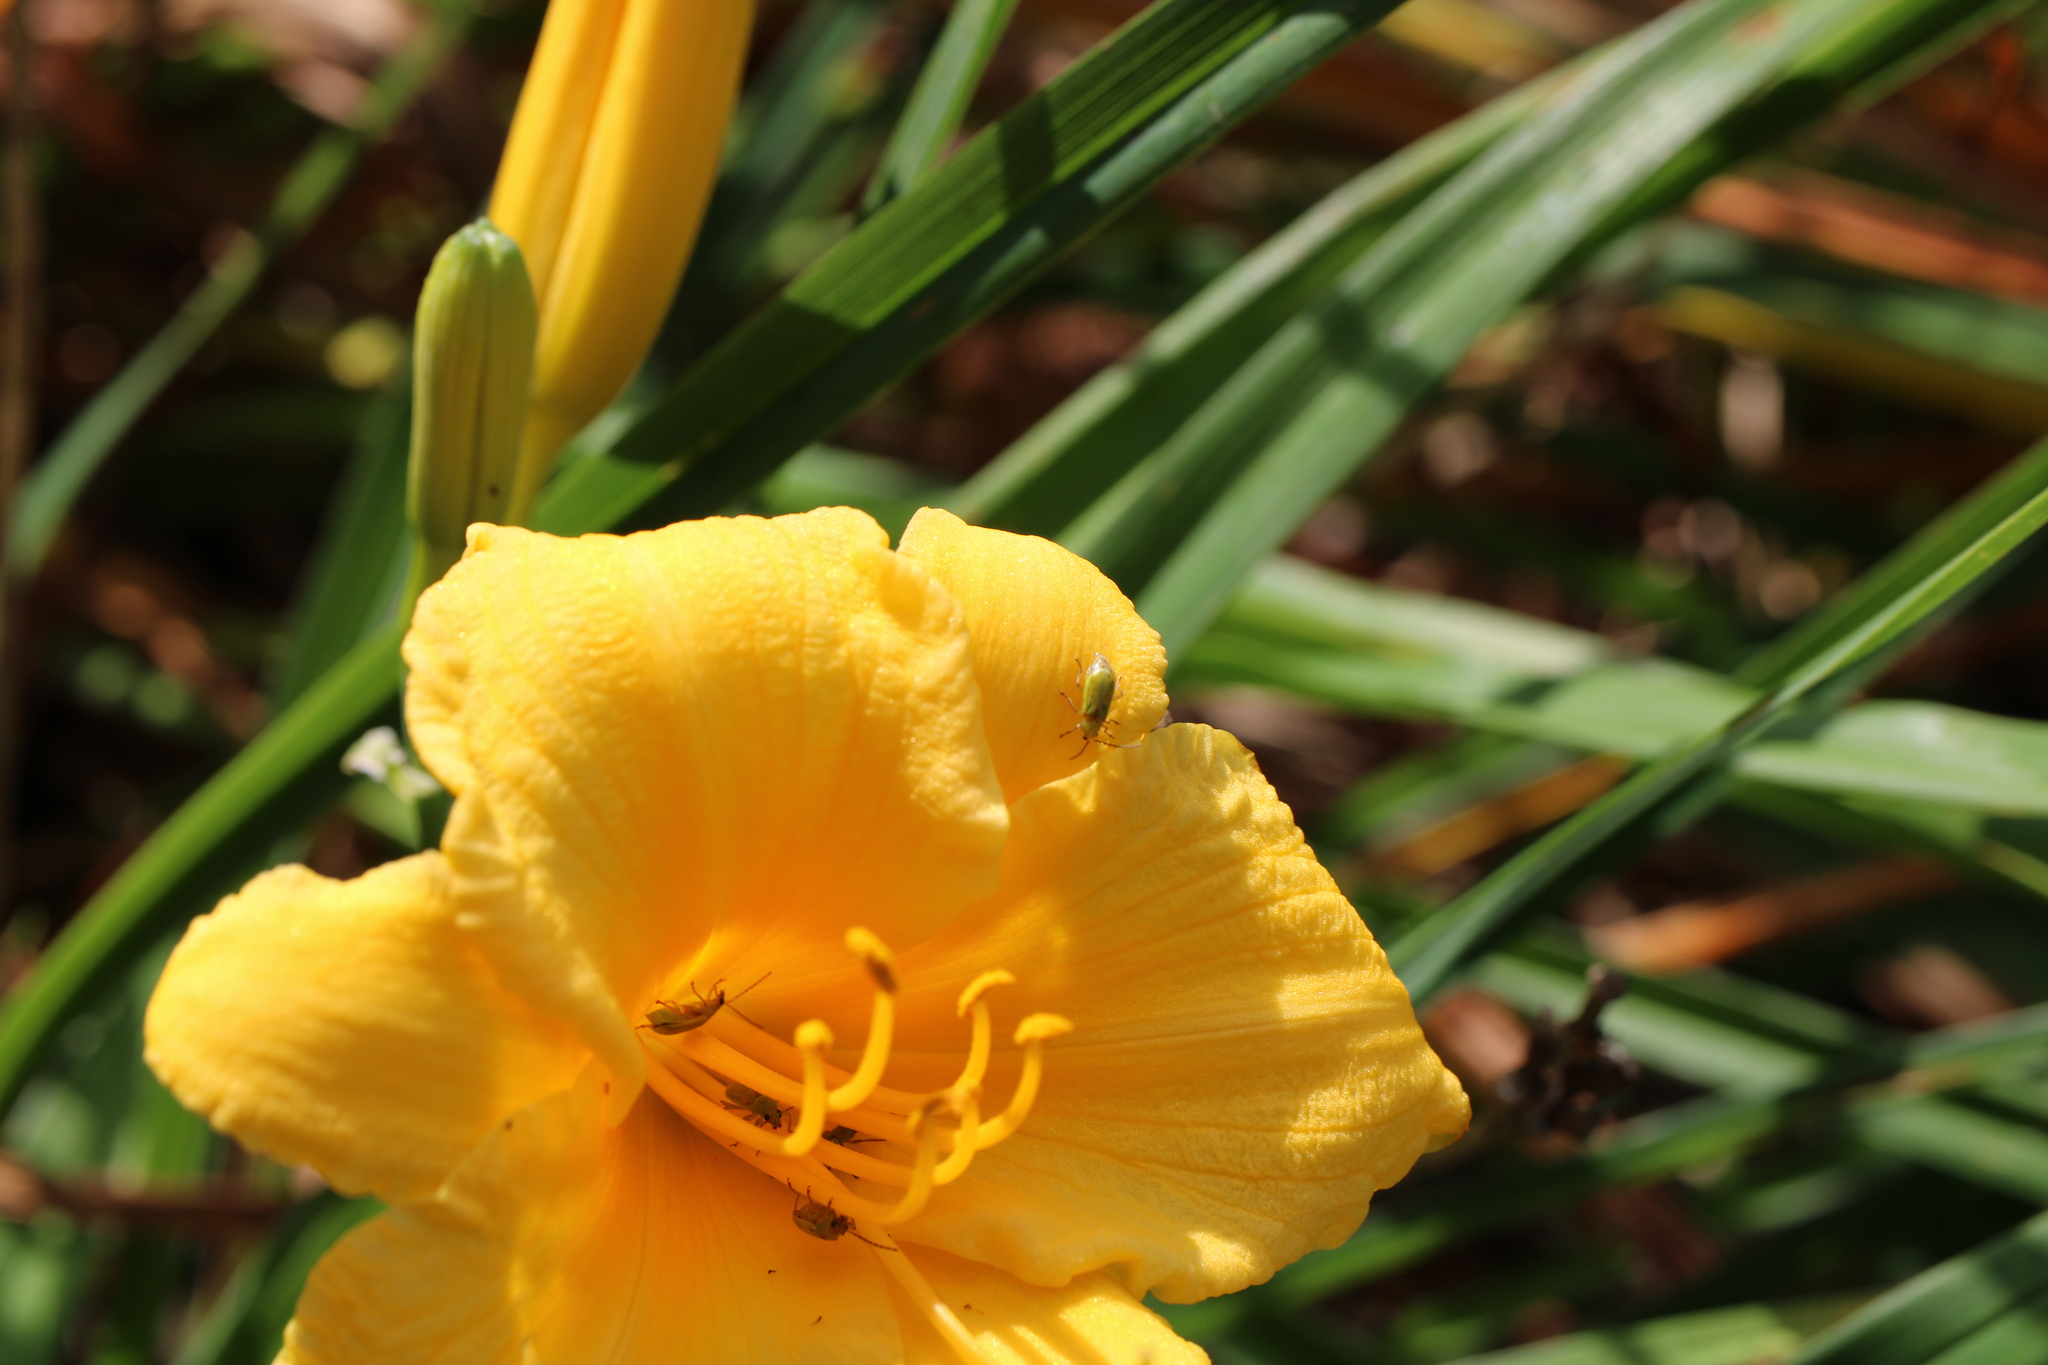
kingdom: Animalia
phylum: Arthropoda
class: Insecta
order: Coleoptera
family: Chrysomelidae
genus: Diabrotica
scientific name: Diabrotica barberi
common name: Northern corn rootworm
